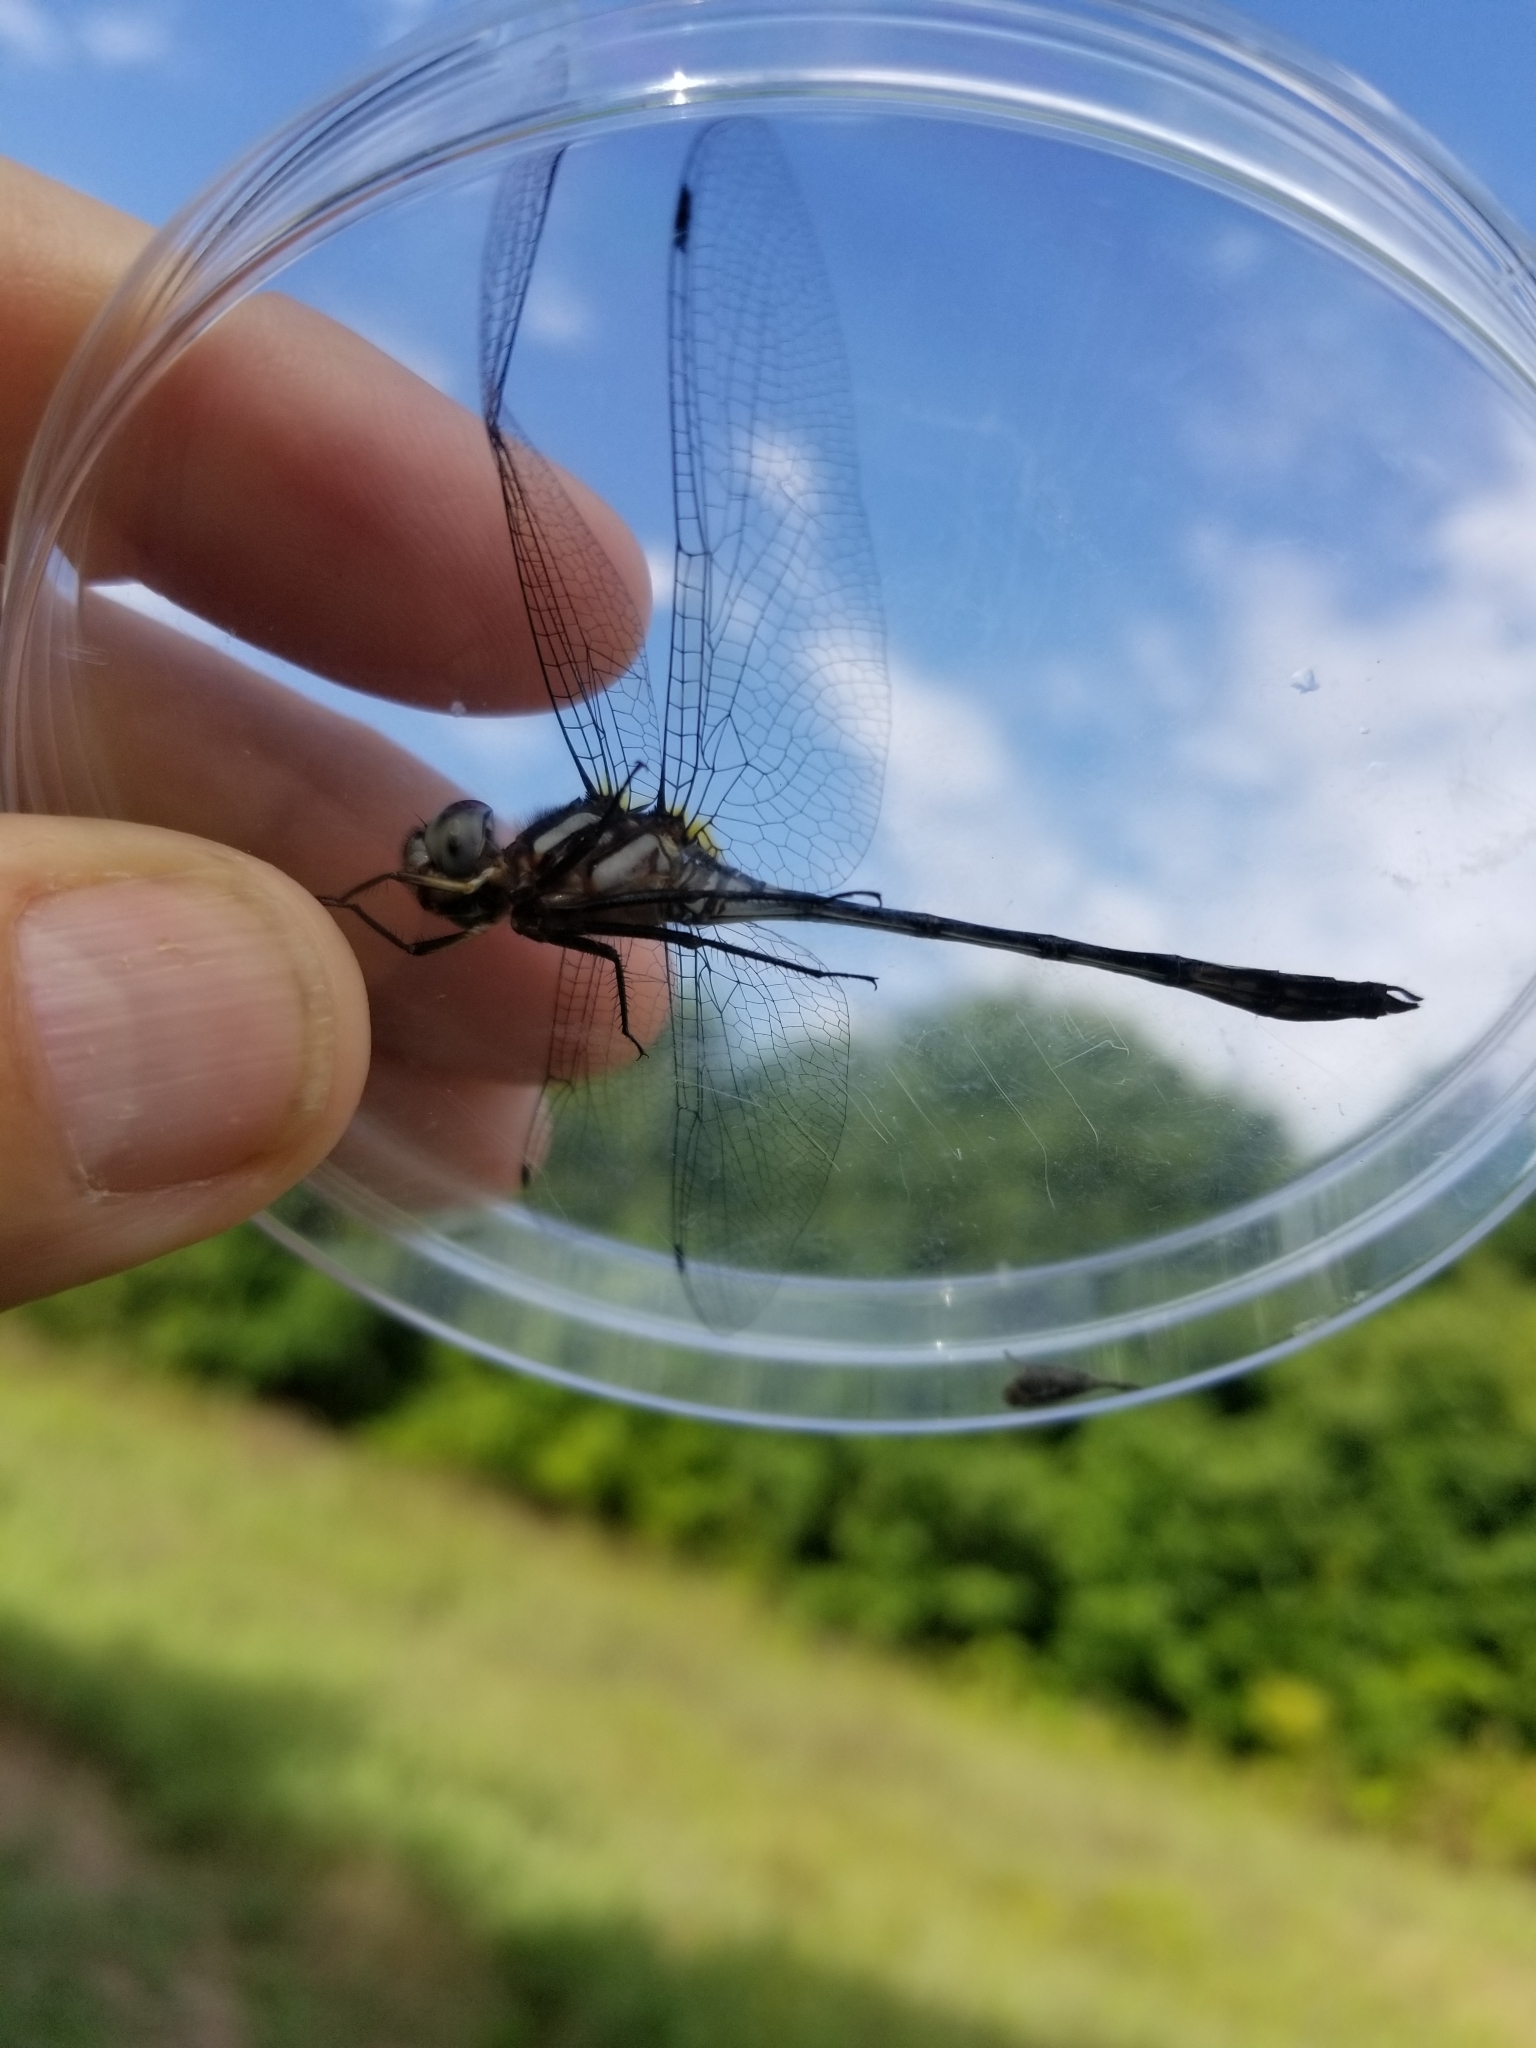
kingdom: Animalia
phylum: Arthropoda
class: Insecta
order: Odonata
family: Libellulidae
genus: Brechmorhoga
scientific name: Brechmorhoga mendax
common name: Pale-faced clubskimmer
